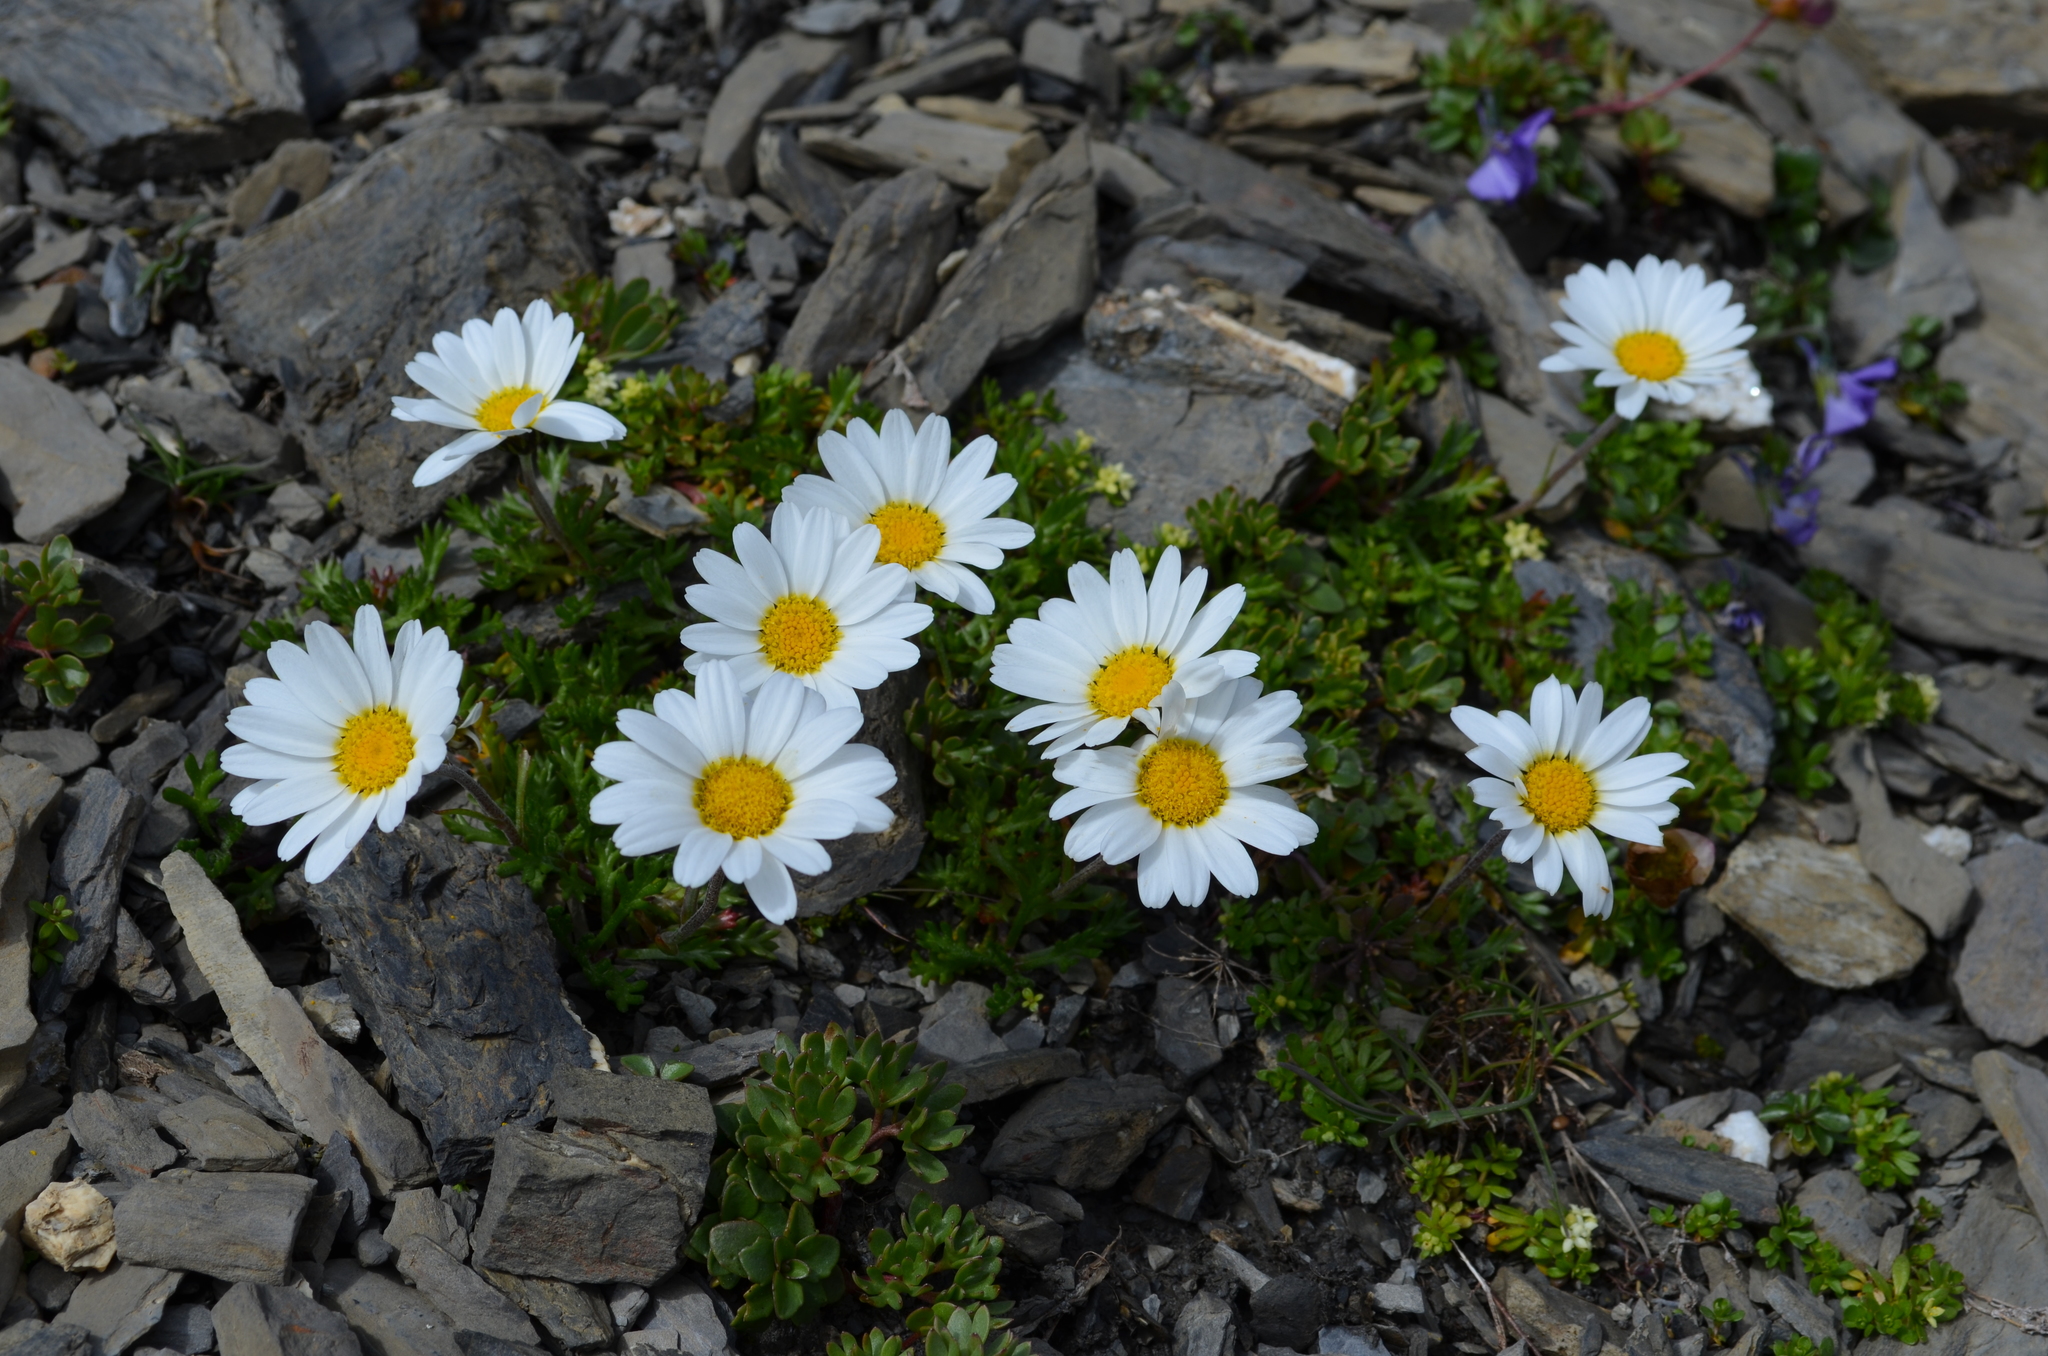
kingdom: Plantae
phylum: Tracheophyta
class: Magnoliopsida
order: Asterales
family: Asteraceae
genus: Leucanthemopsis
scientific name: Leucanthemopsis alpina
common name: Alpine moon daisy
